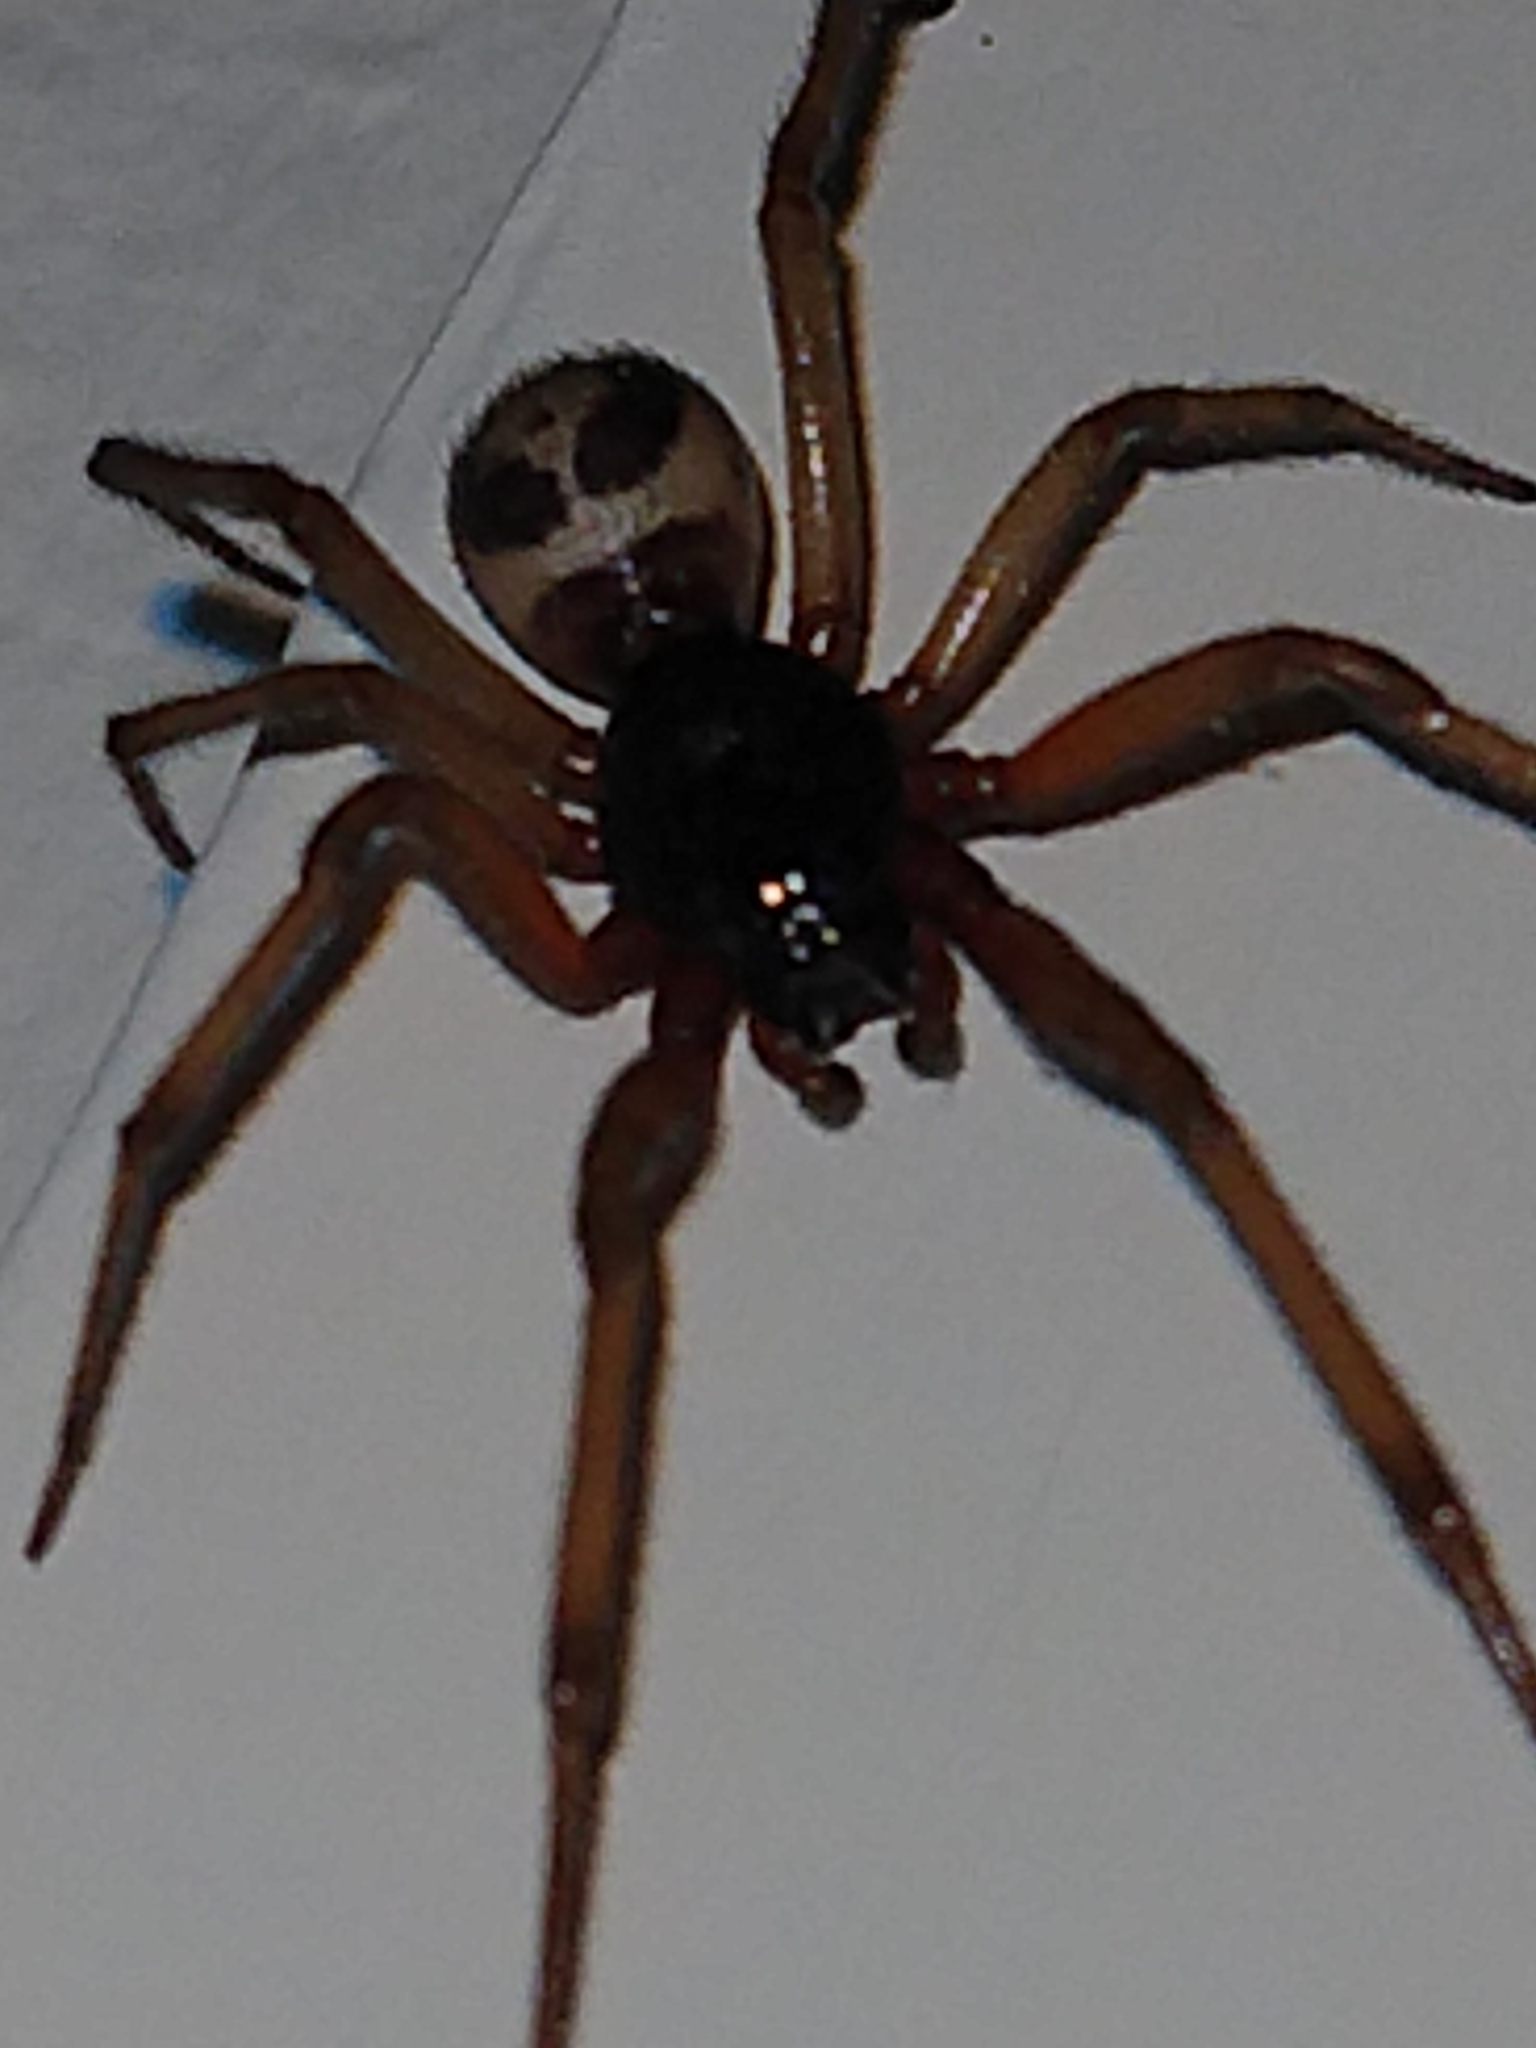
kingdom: Animalia
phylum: Arthropoda
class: Arachnida
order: Araneae
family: Theridiidae
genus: Steatoda
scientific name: Steatoda nobilis
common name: Cobweb weaver
